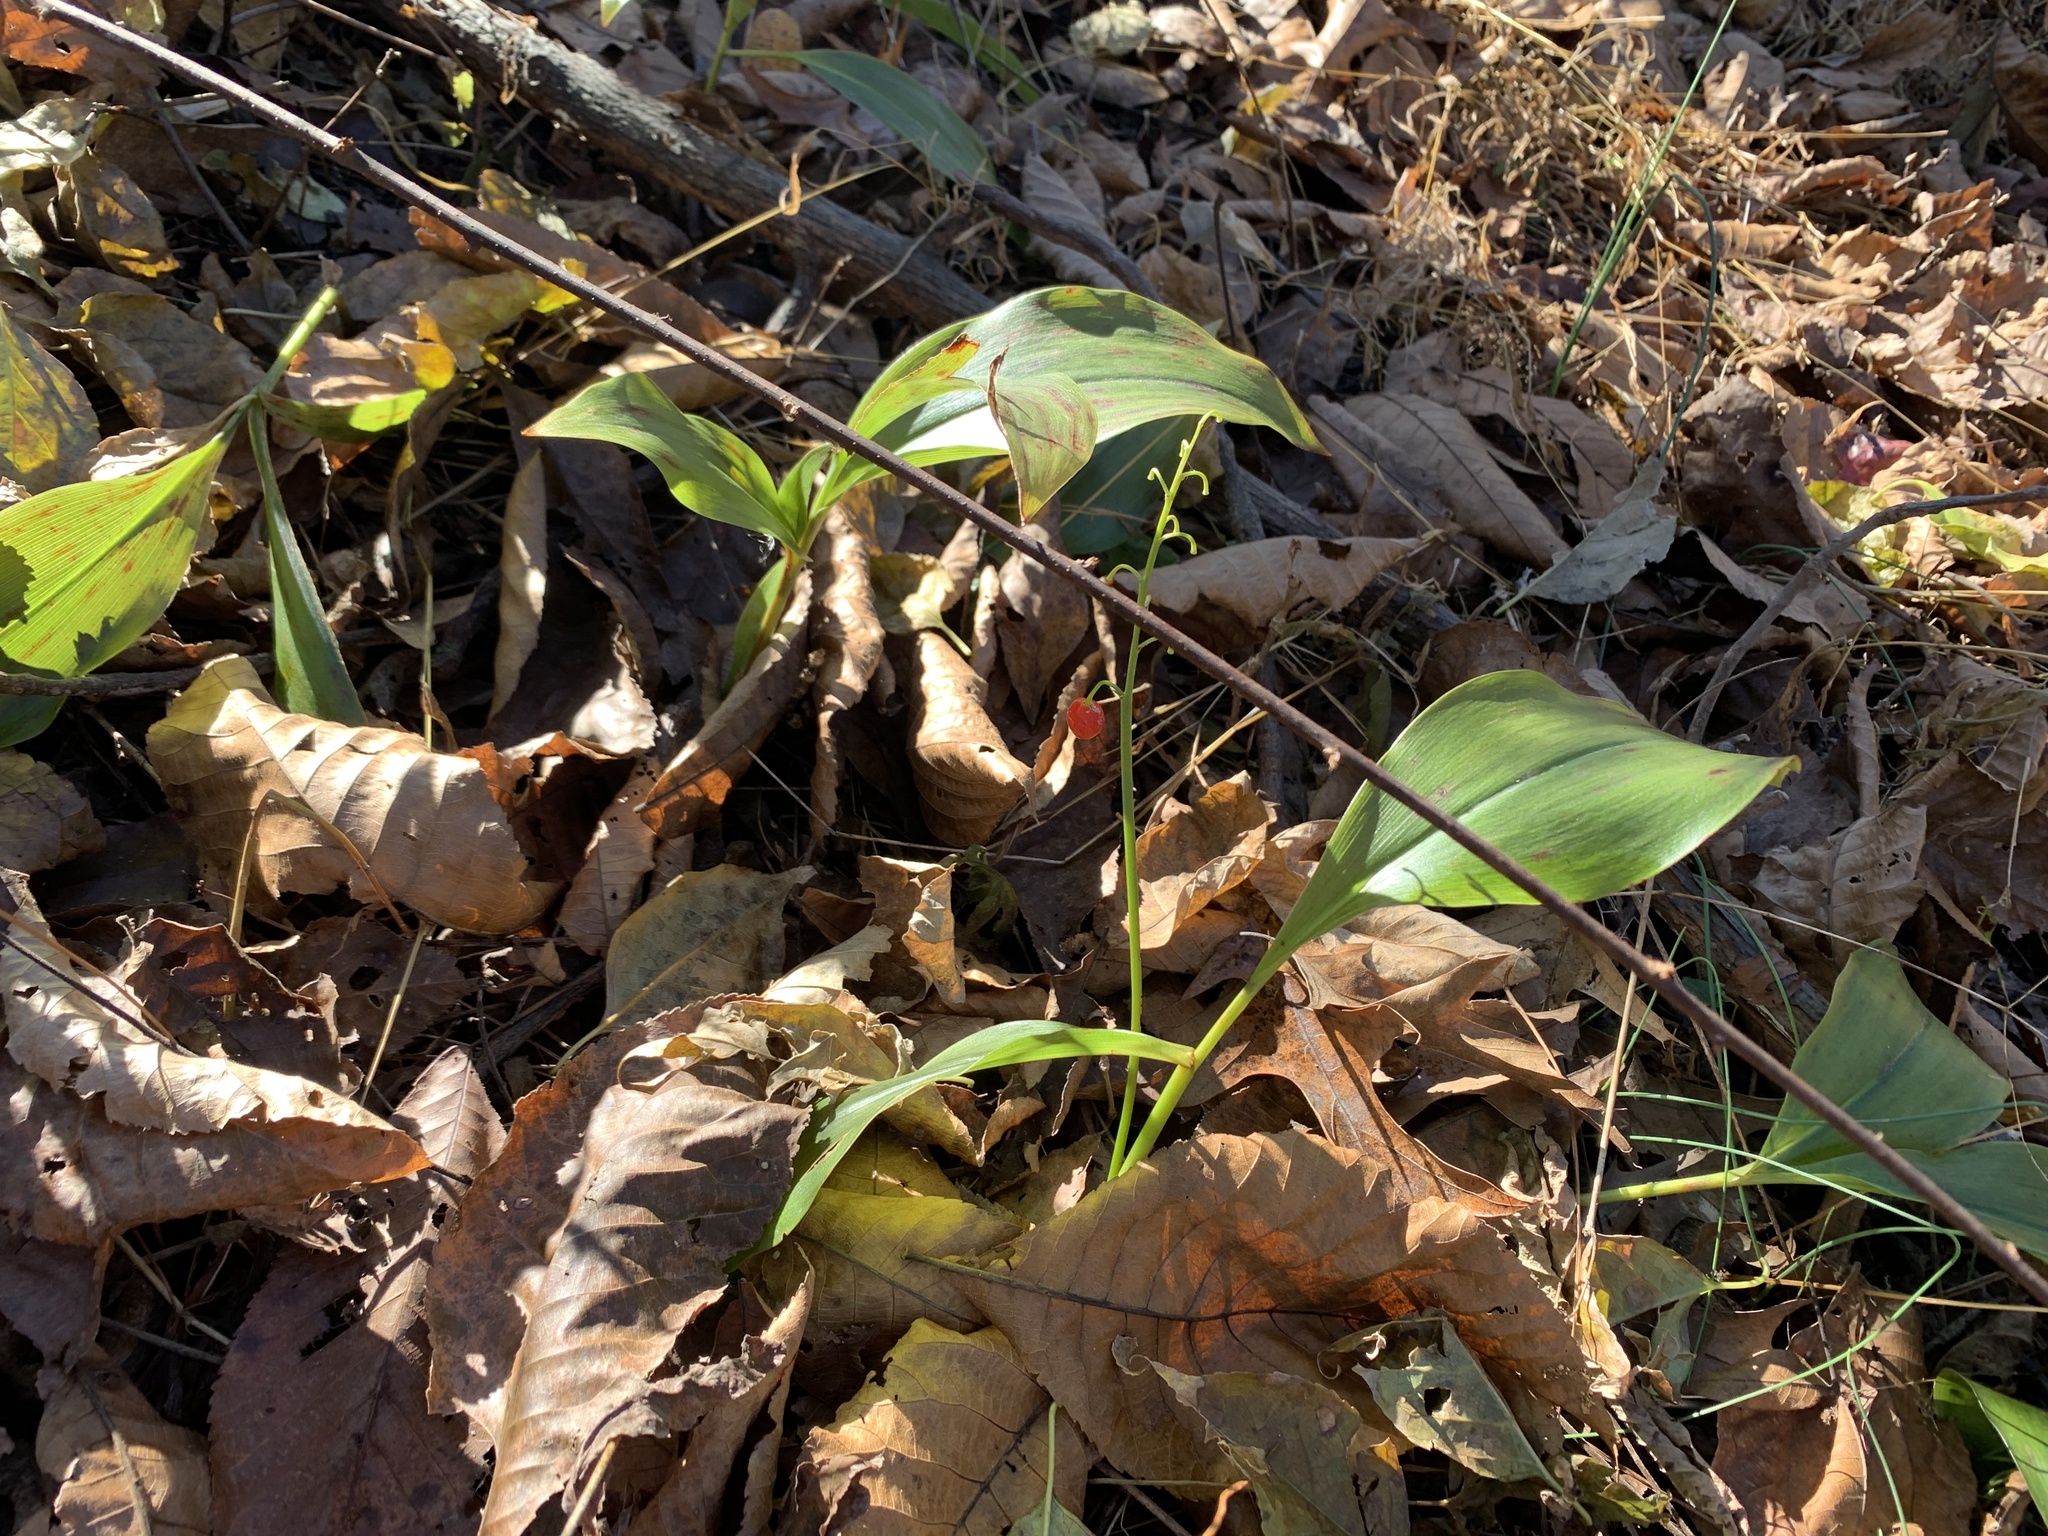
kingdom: Plantae
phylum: Tracheophyta
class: Liliopsida
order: Asparagales
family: Asparagaceae
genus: Convallaria
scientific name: Convallaria majalis
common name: Lily-of-the-valley
